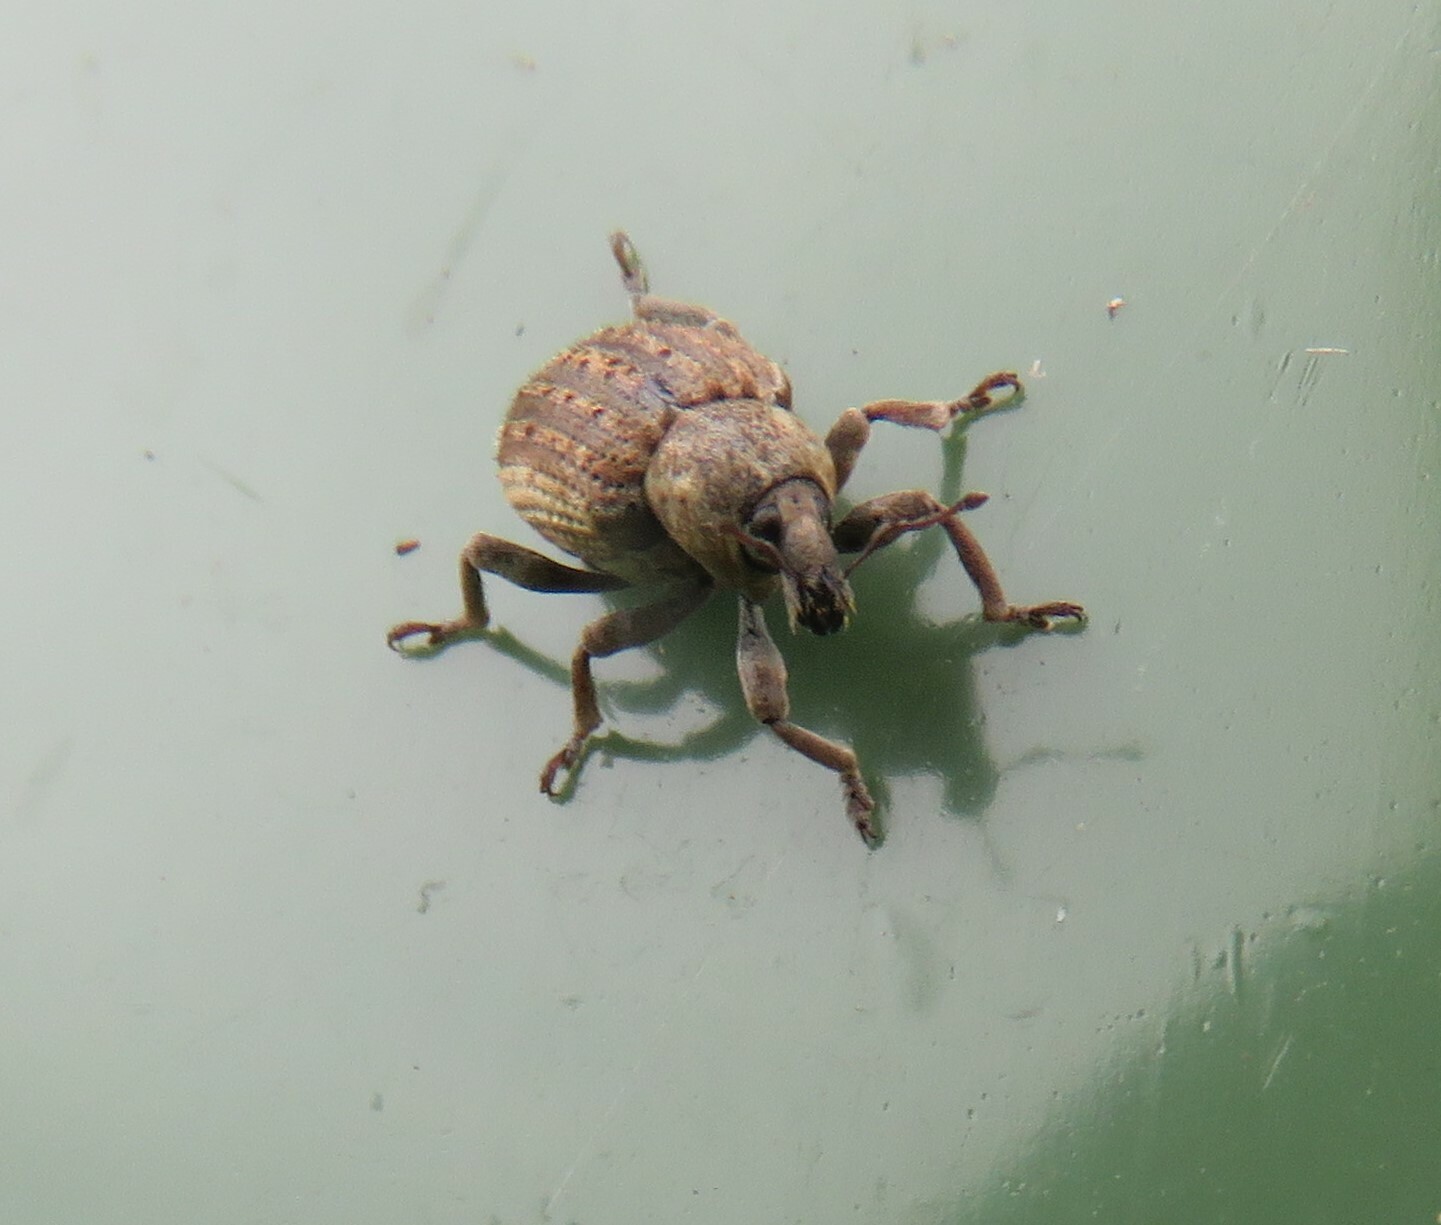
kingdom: Animalia
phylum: Arthropoda
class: Insecta
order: Coleoptera
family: Curculionidae
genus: Brachypera
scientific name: Brachypera zoilus
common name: Clover leaf weevil
